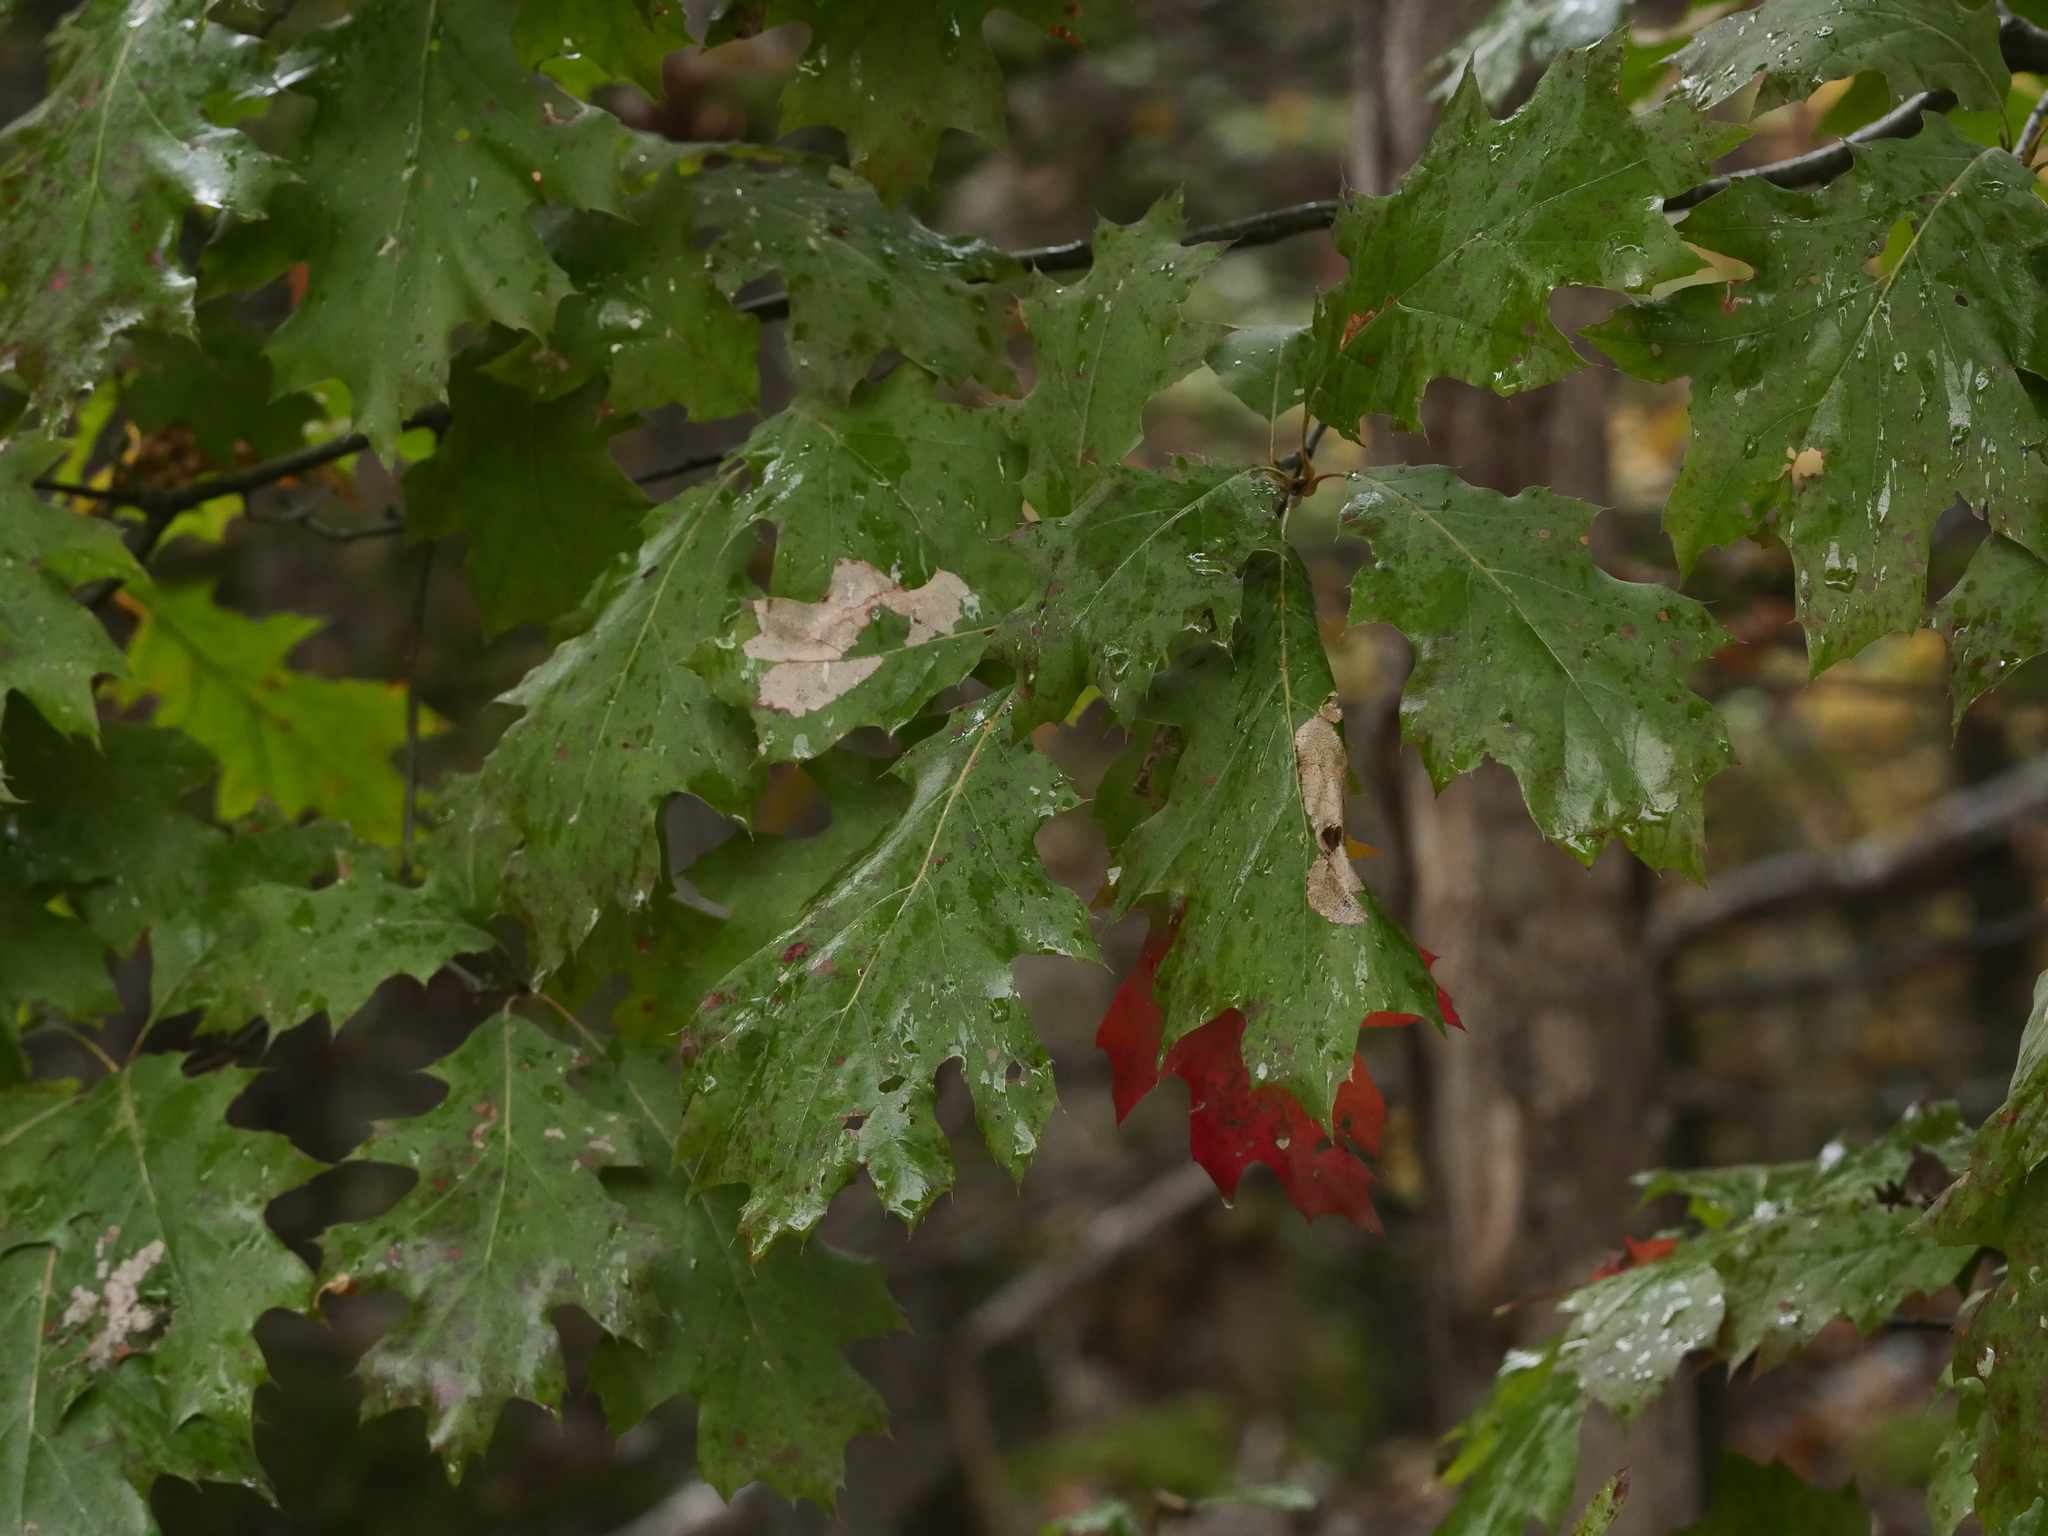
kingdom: Plantae
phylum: Tracheophyta
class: Magnoliopsida
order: Fagales
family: Fagaceae
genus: Quercus
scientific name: Quercus rubra
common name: Red oak
